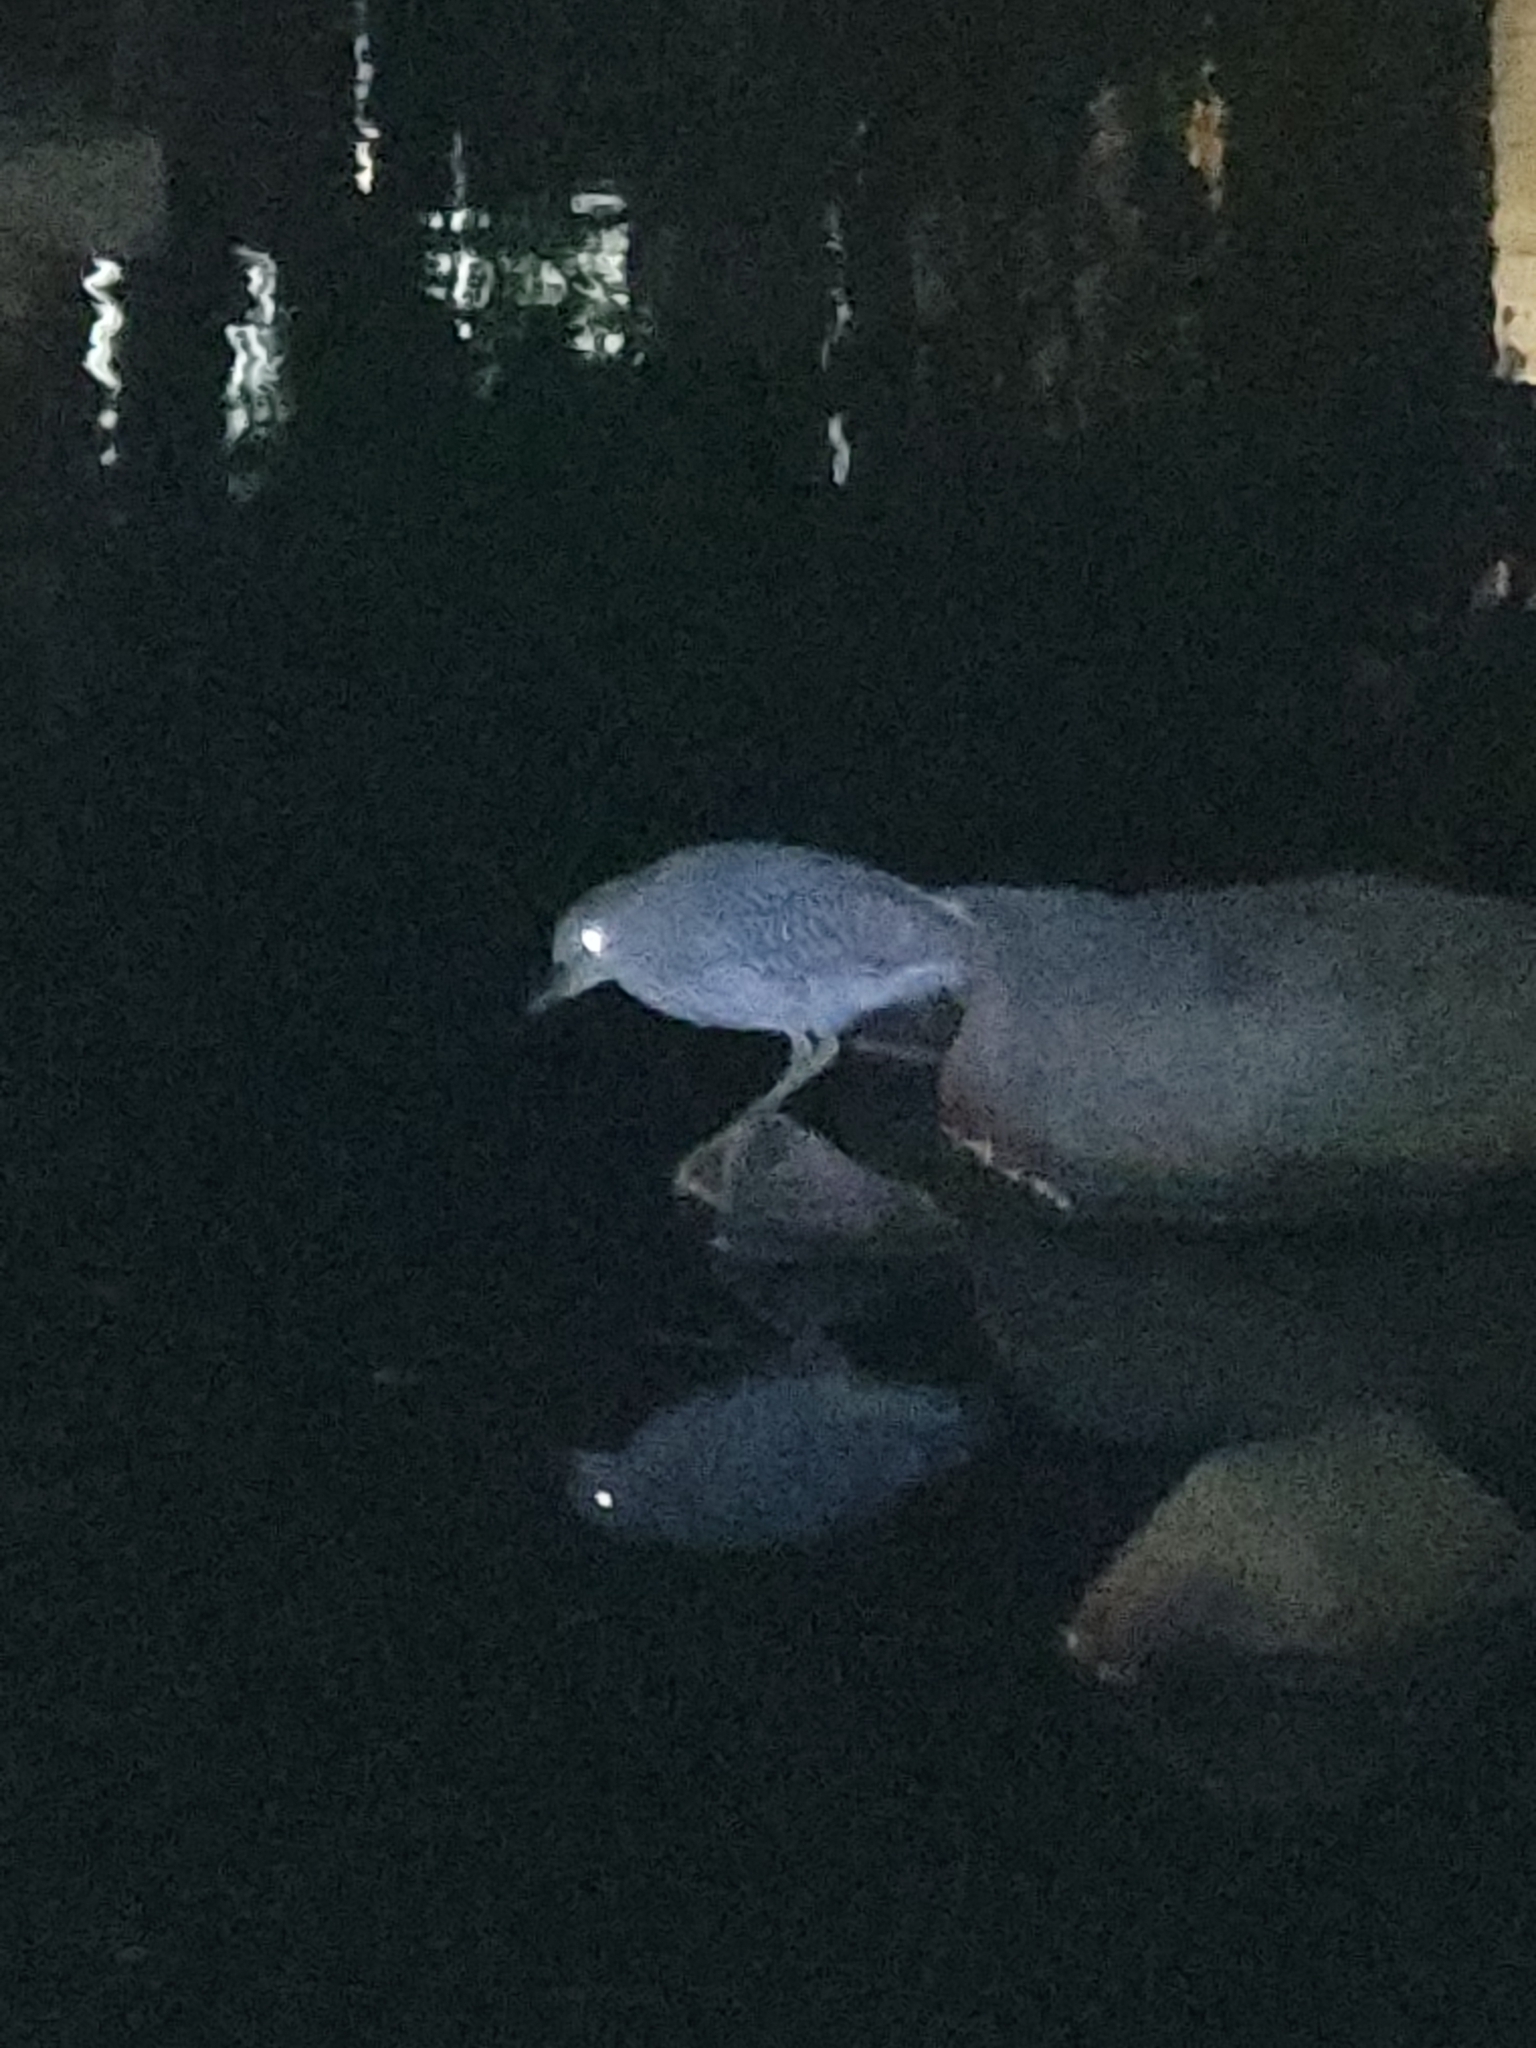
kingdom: Animalia
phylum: Chordata
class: Aves
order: Pelecaniformes
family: Ardeidae
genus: Nycticorax
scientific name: Nycticorax nycticorax
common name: Black-crowned night heron
